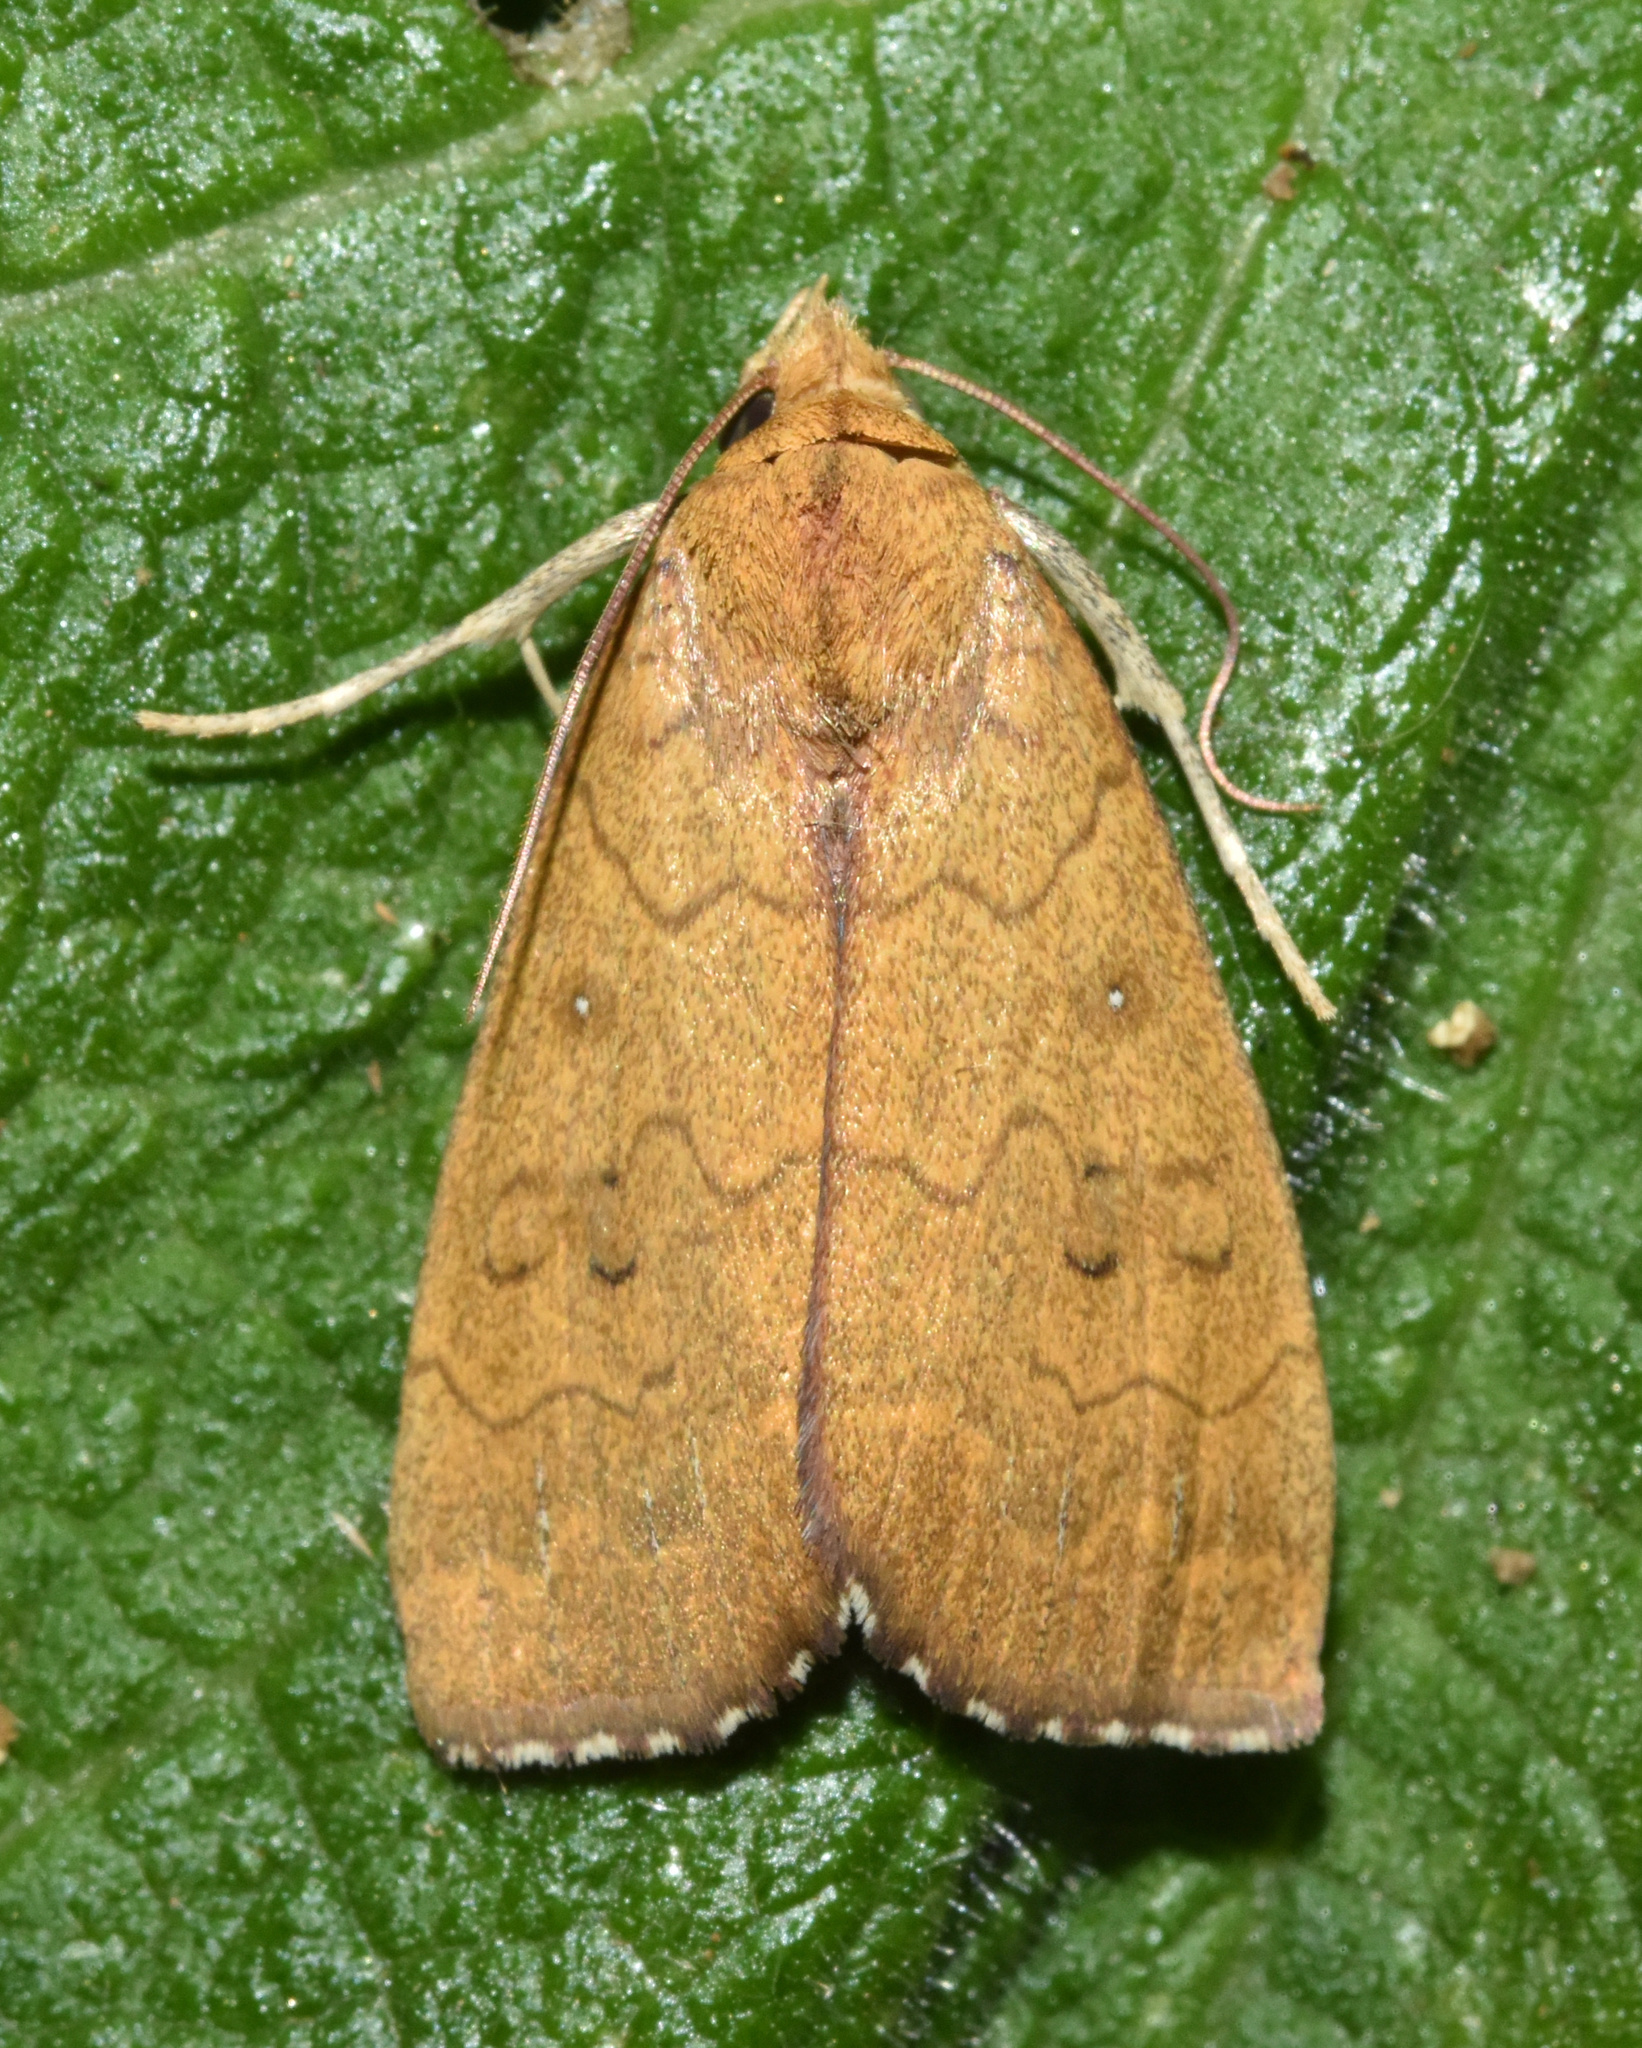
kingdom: Animalia
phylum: Arthropoda
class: Insecta
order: Lepidoptera
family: Erebidae
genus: Anomis
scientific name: Anomis luperca
